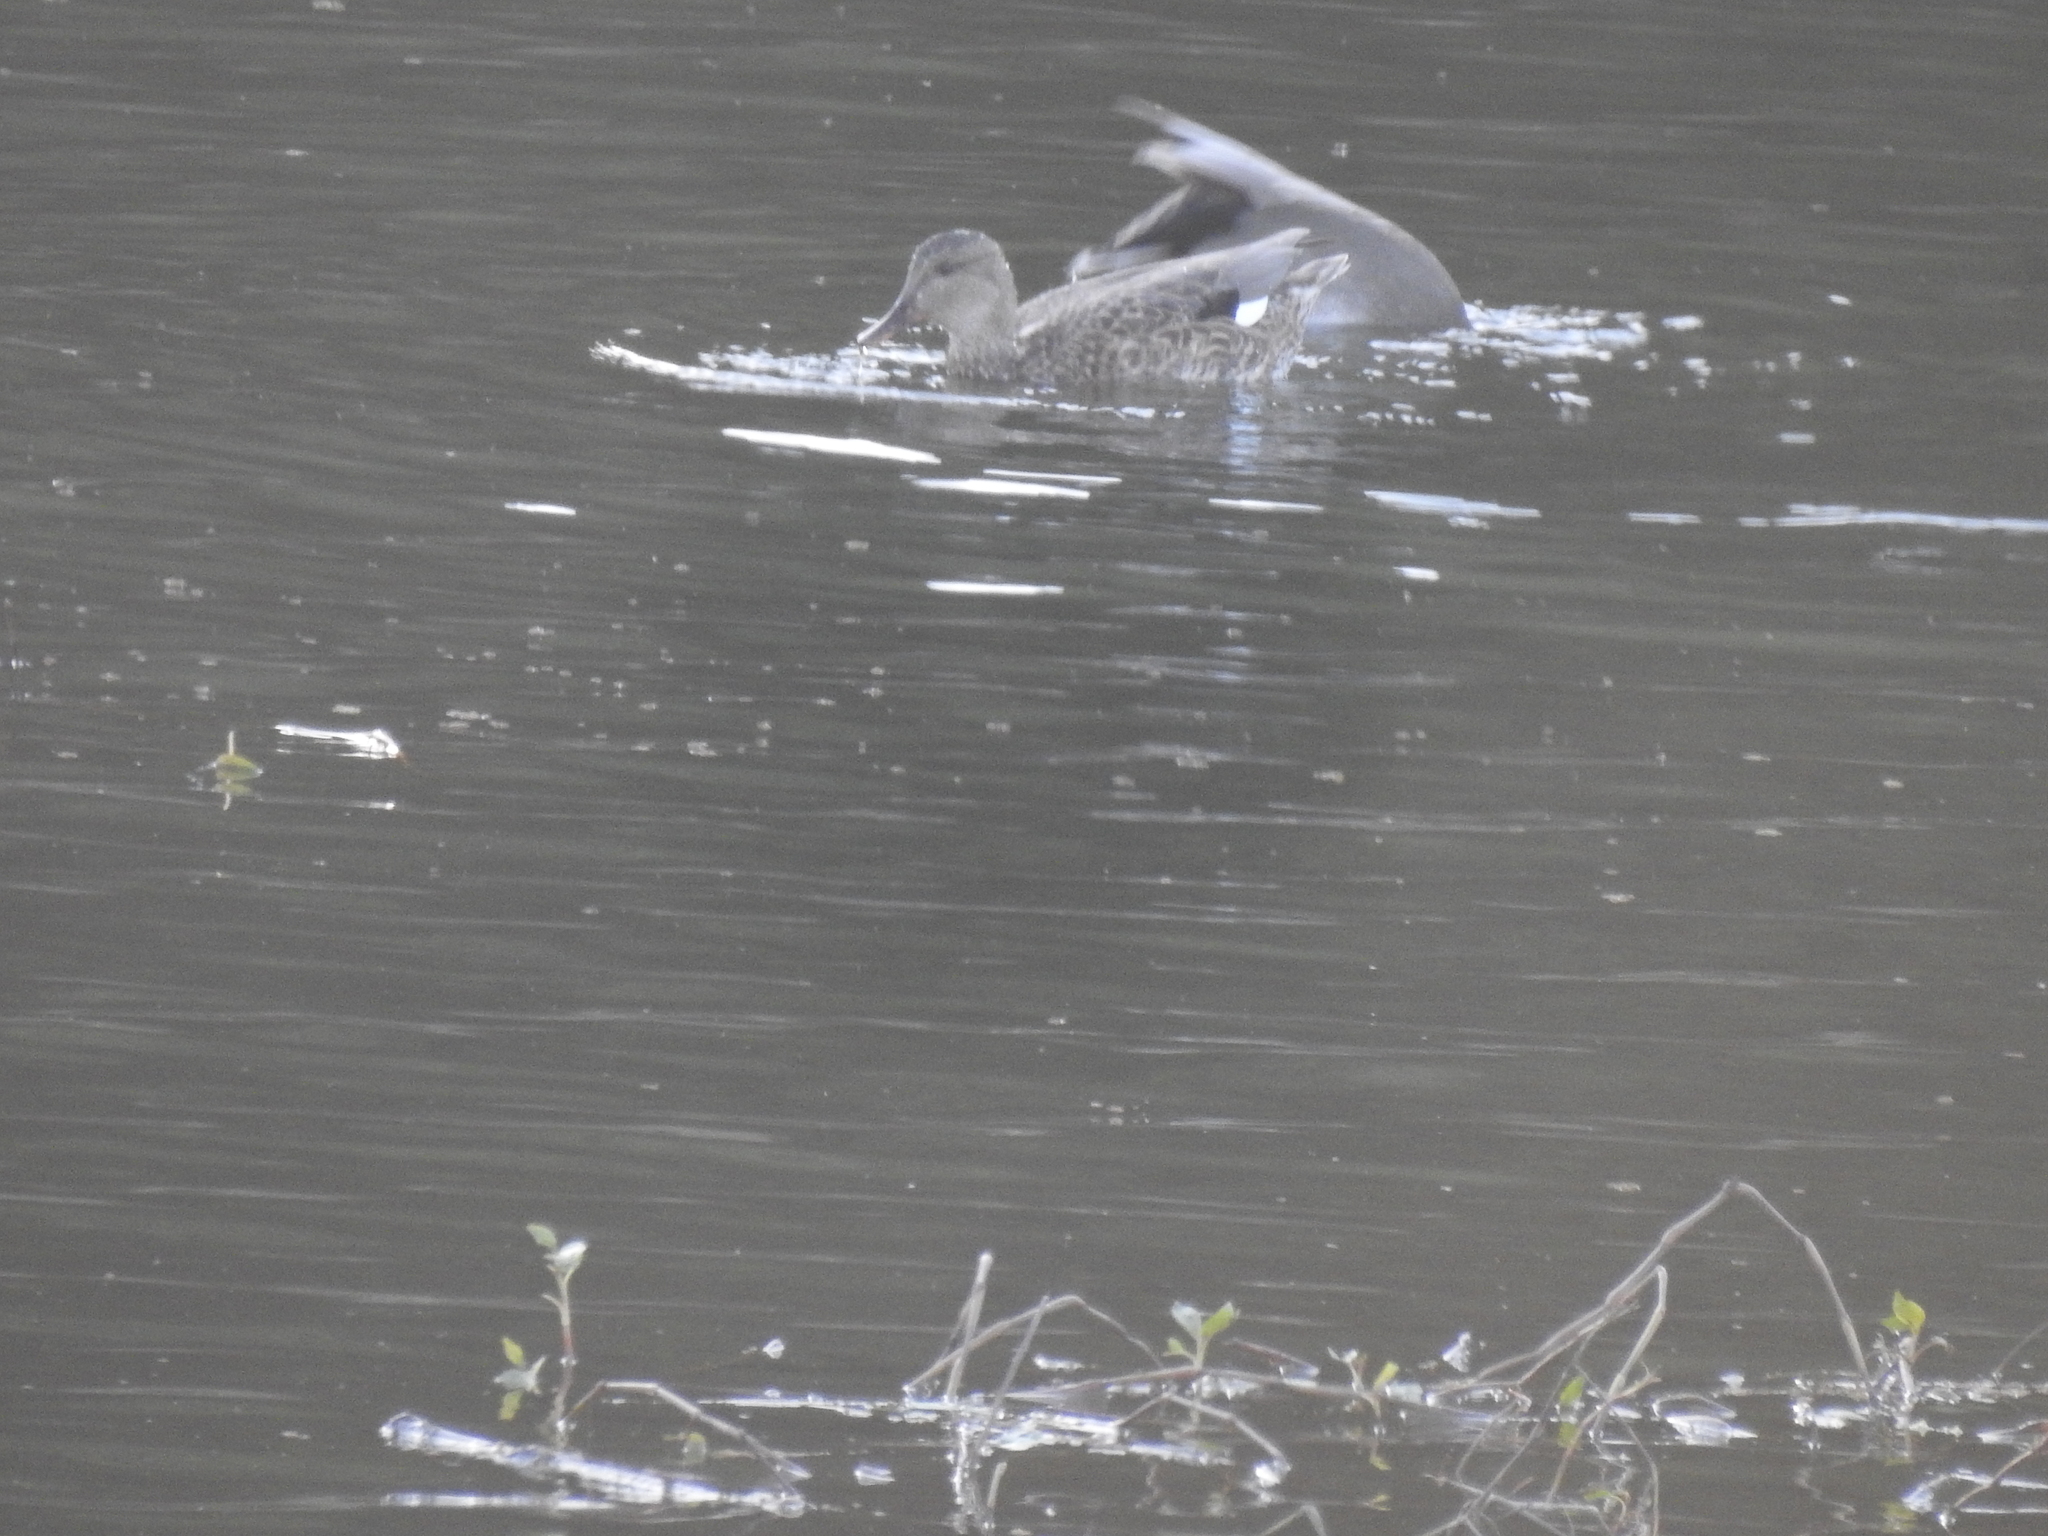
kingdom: Animalia
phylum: Chordata
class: Aves
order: Anseriformes
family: Anatidae
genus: Mareca
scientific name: Mareca strepera
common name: Gadwall
